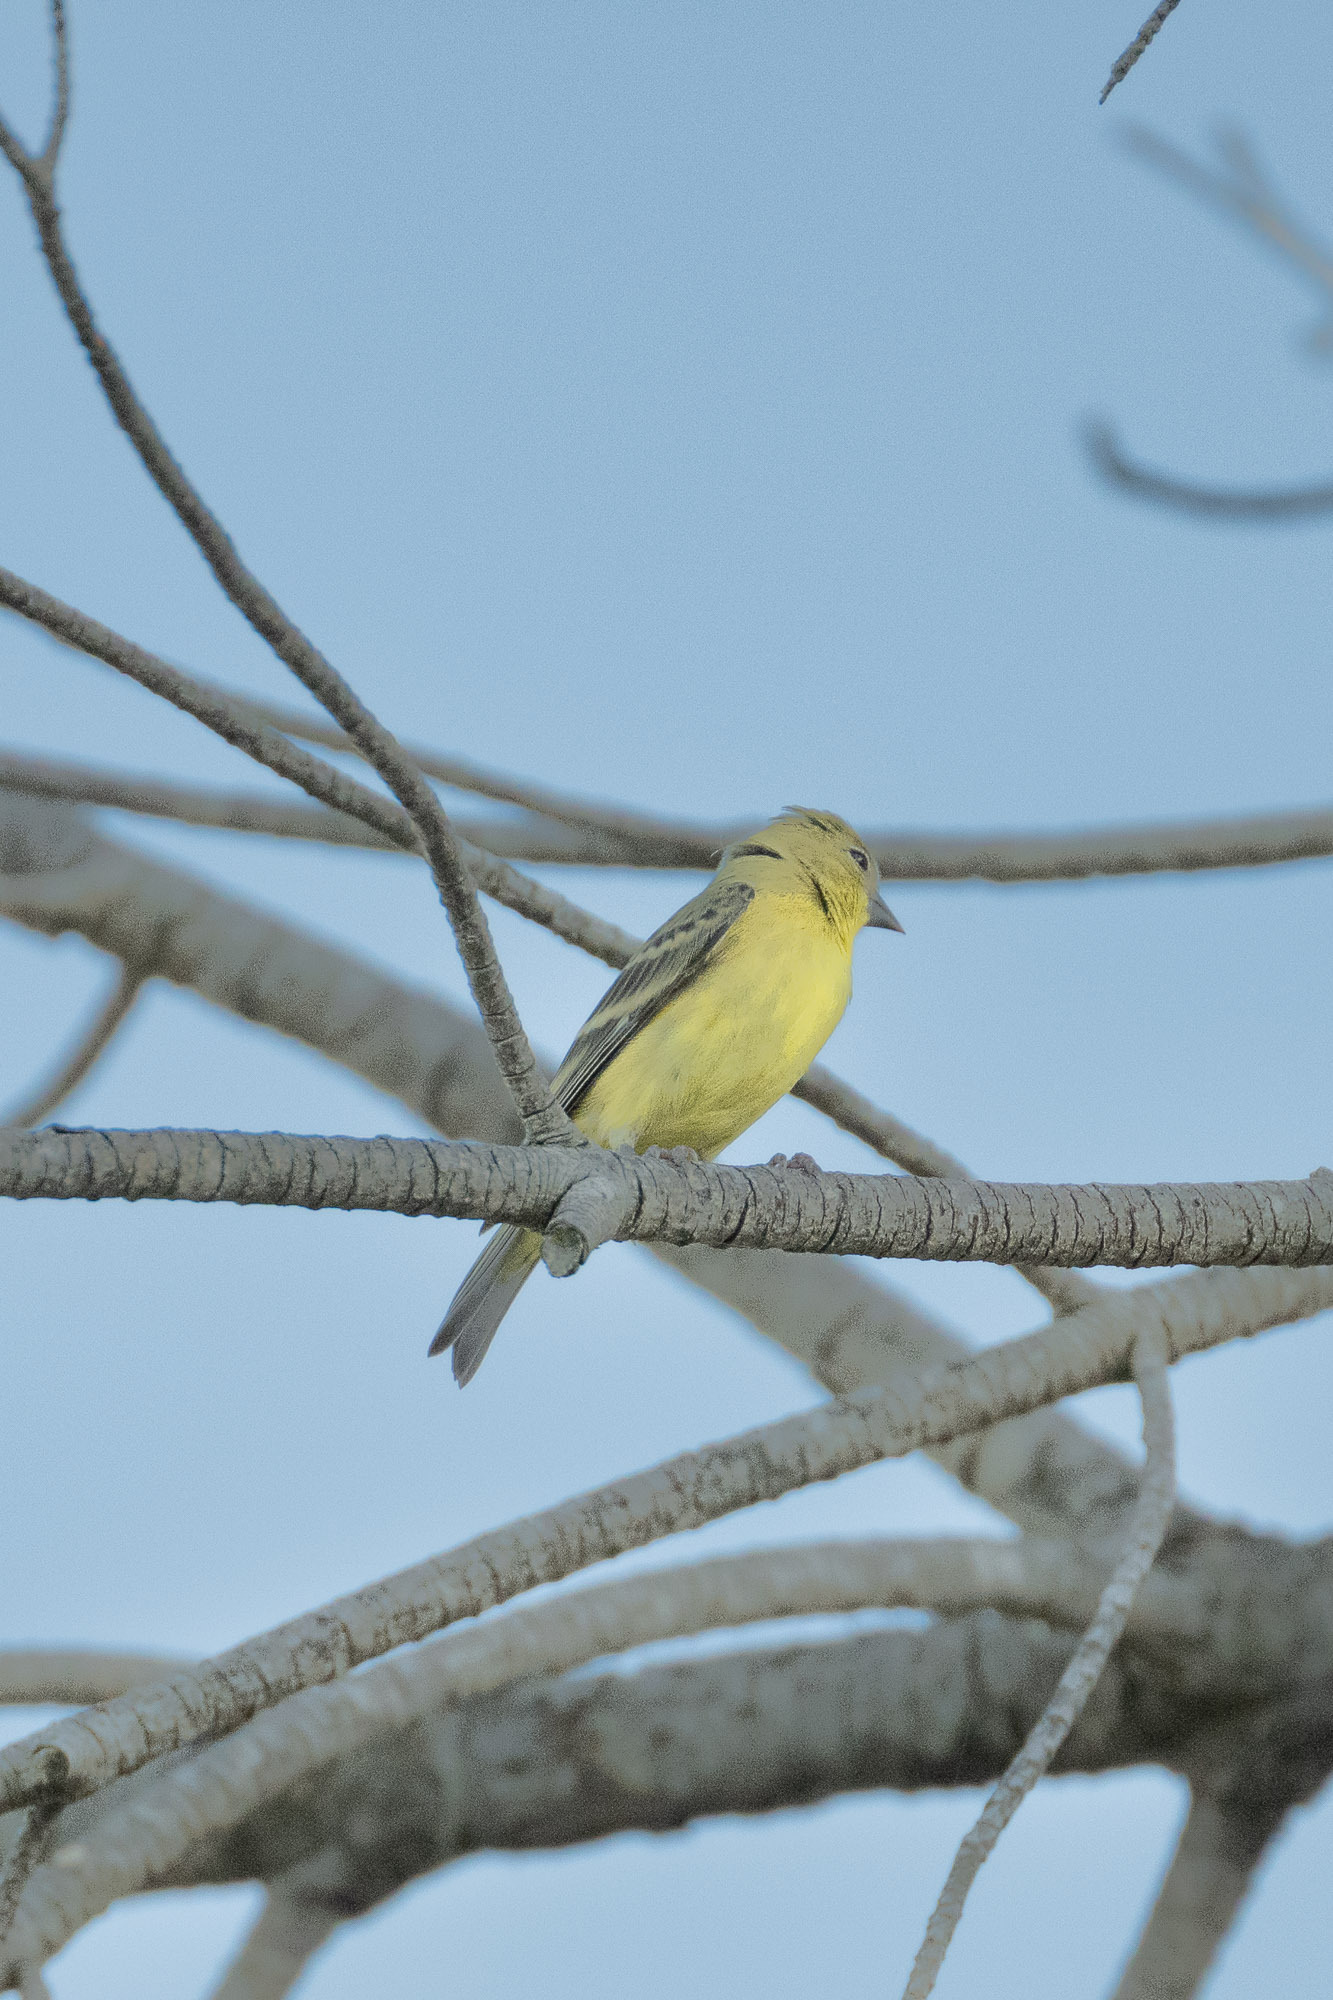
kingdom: Animalia
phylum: Chordata
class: Aves
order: Passeriformes
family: Fringillidae
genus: Spinus
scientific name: Spinus psaltria
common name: Lesser goldfinch
